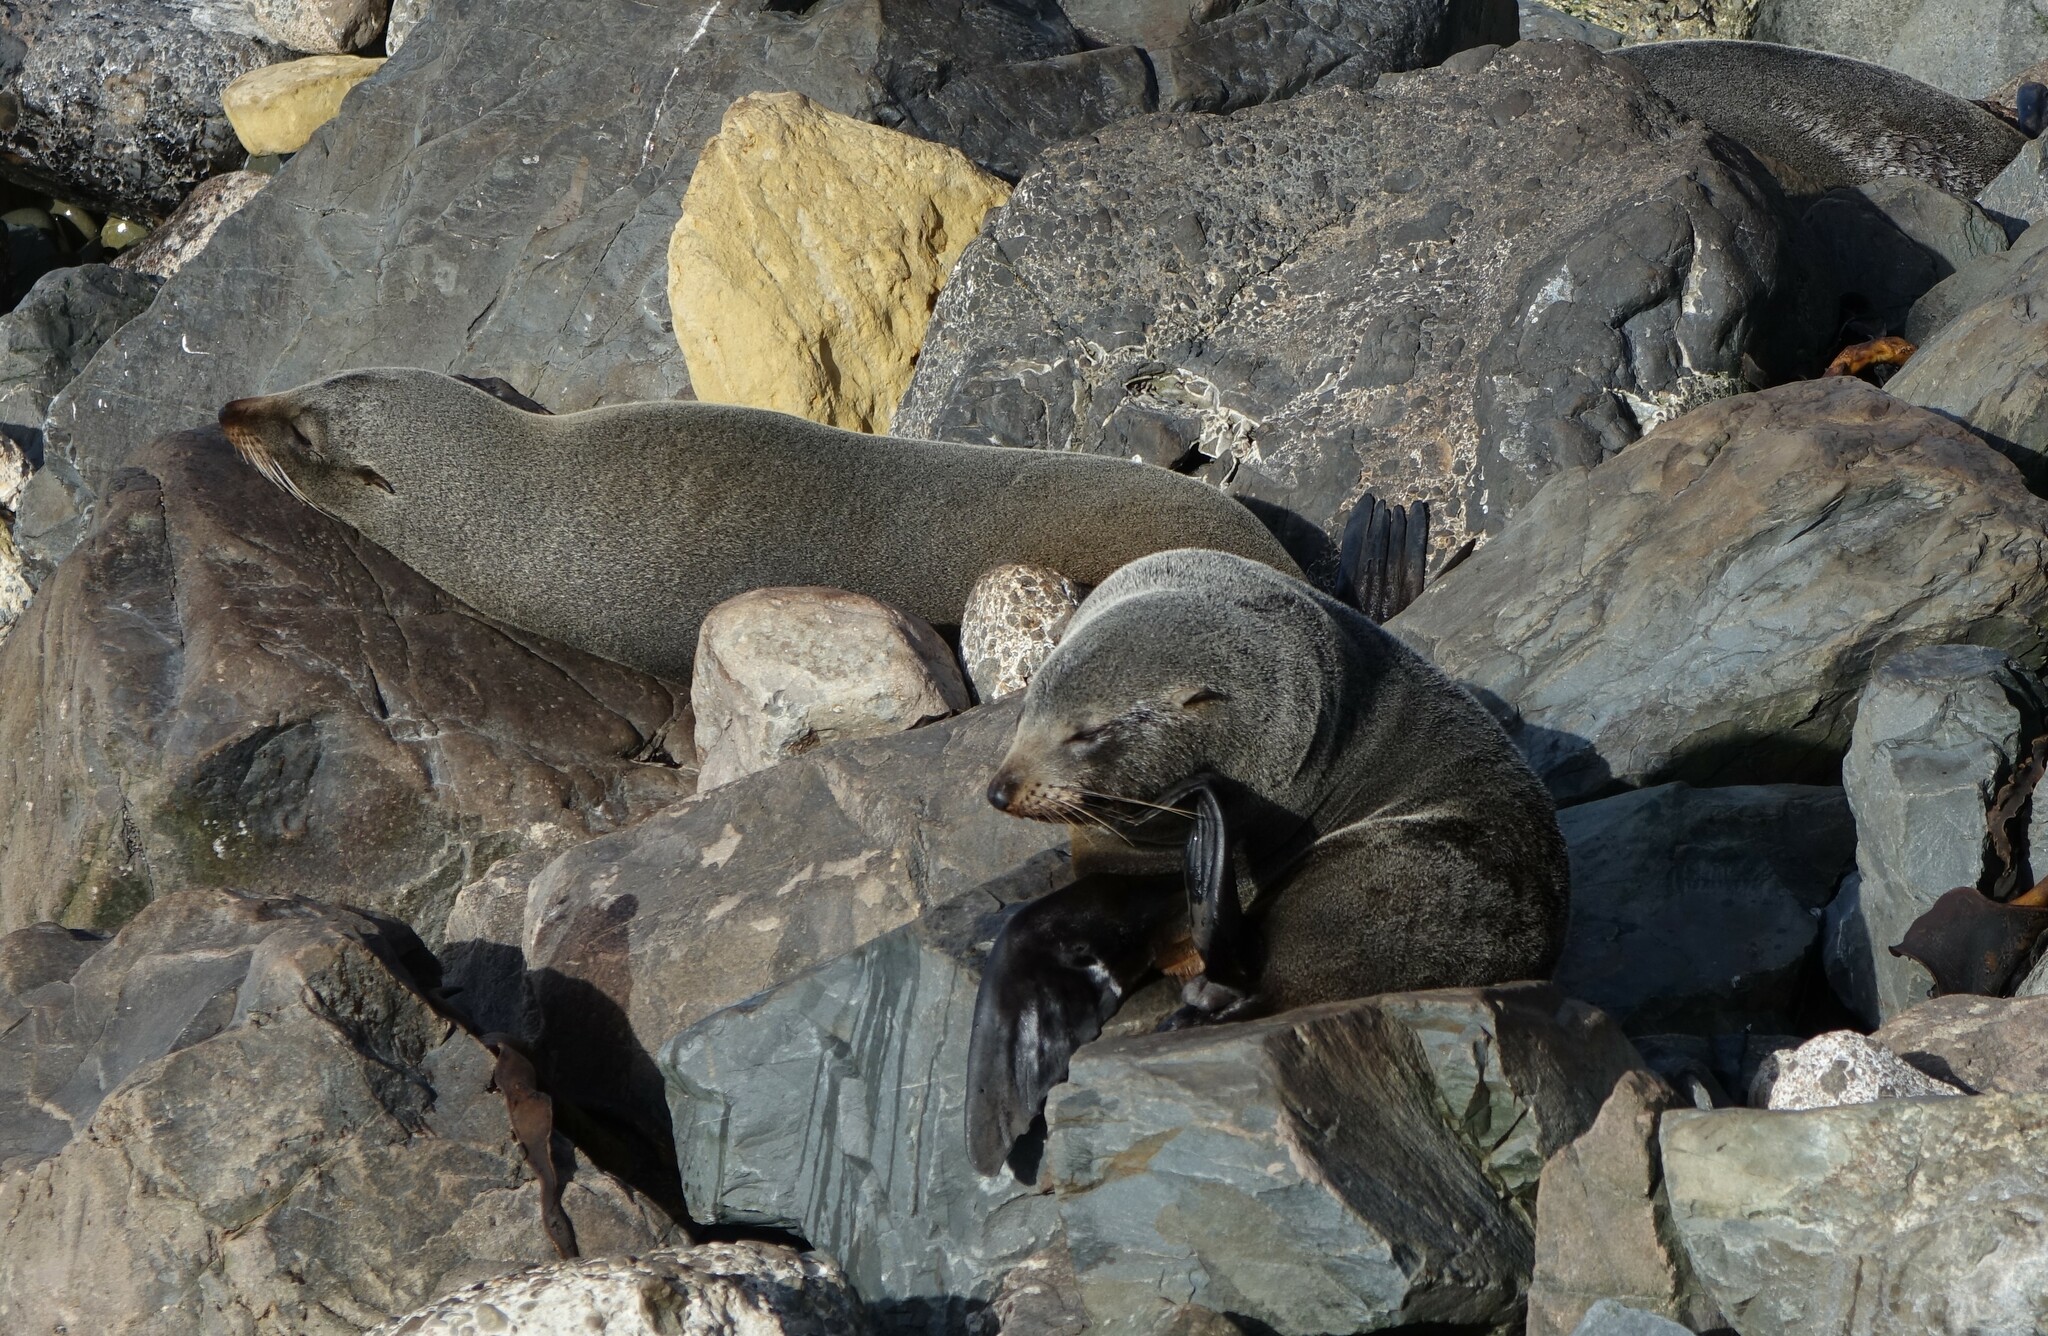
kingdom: Animalia
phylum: Chordata
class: Mammalia
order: Carnivora
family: Otariidae
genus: Arctocephalus
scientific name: Arctocephalus forsteri
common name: New zealand fur seal
